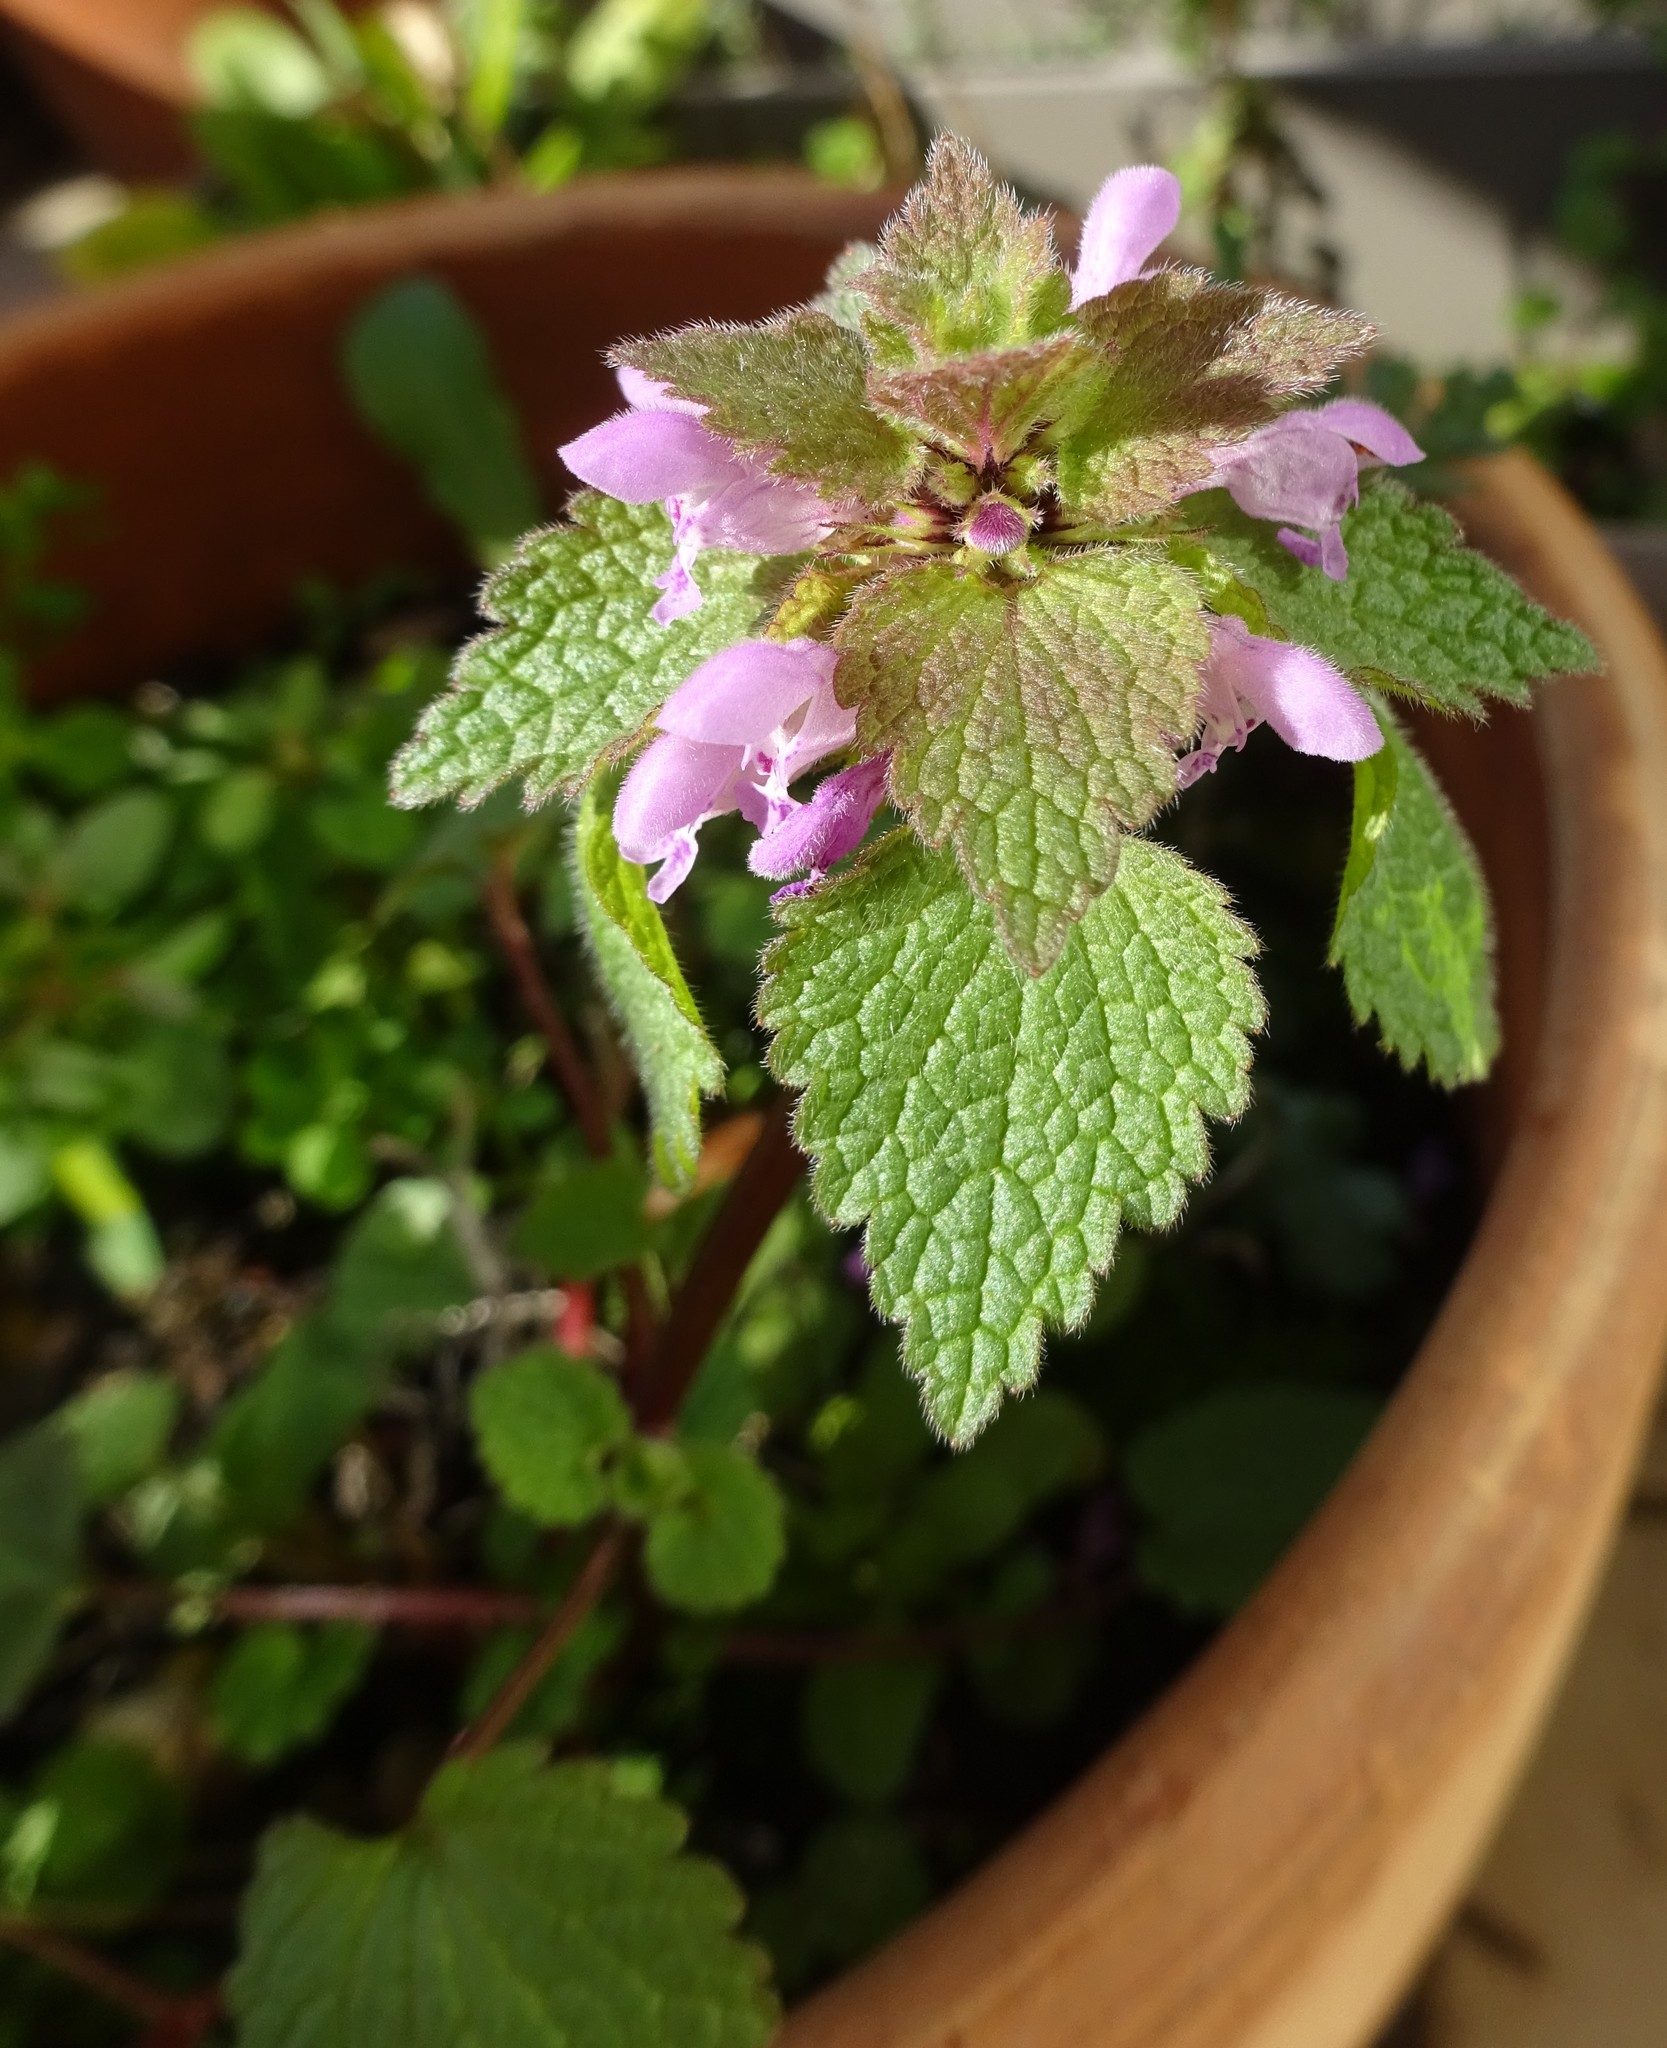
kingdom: Plantae
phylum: Tracheophyta
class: Magnoliopsida
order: Lamiales
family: Lamiaceae
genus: Lamium
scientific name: Lamium purpureum
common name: Red dead-nettle
